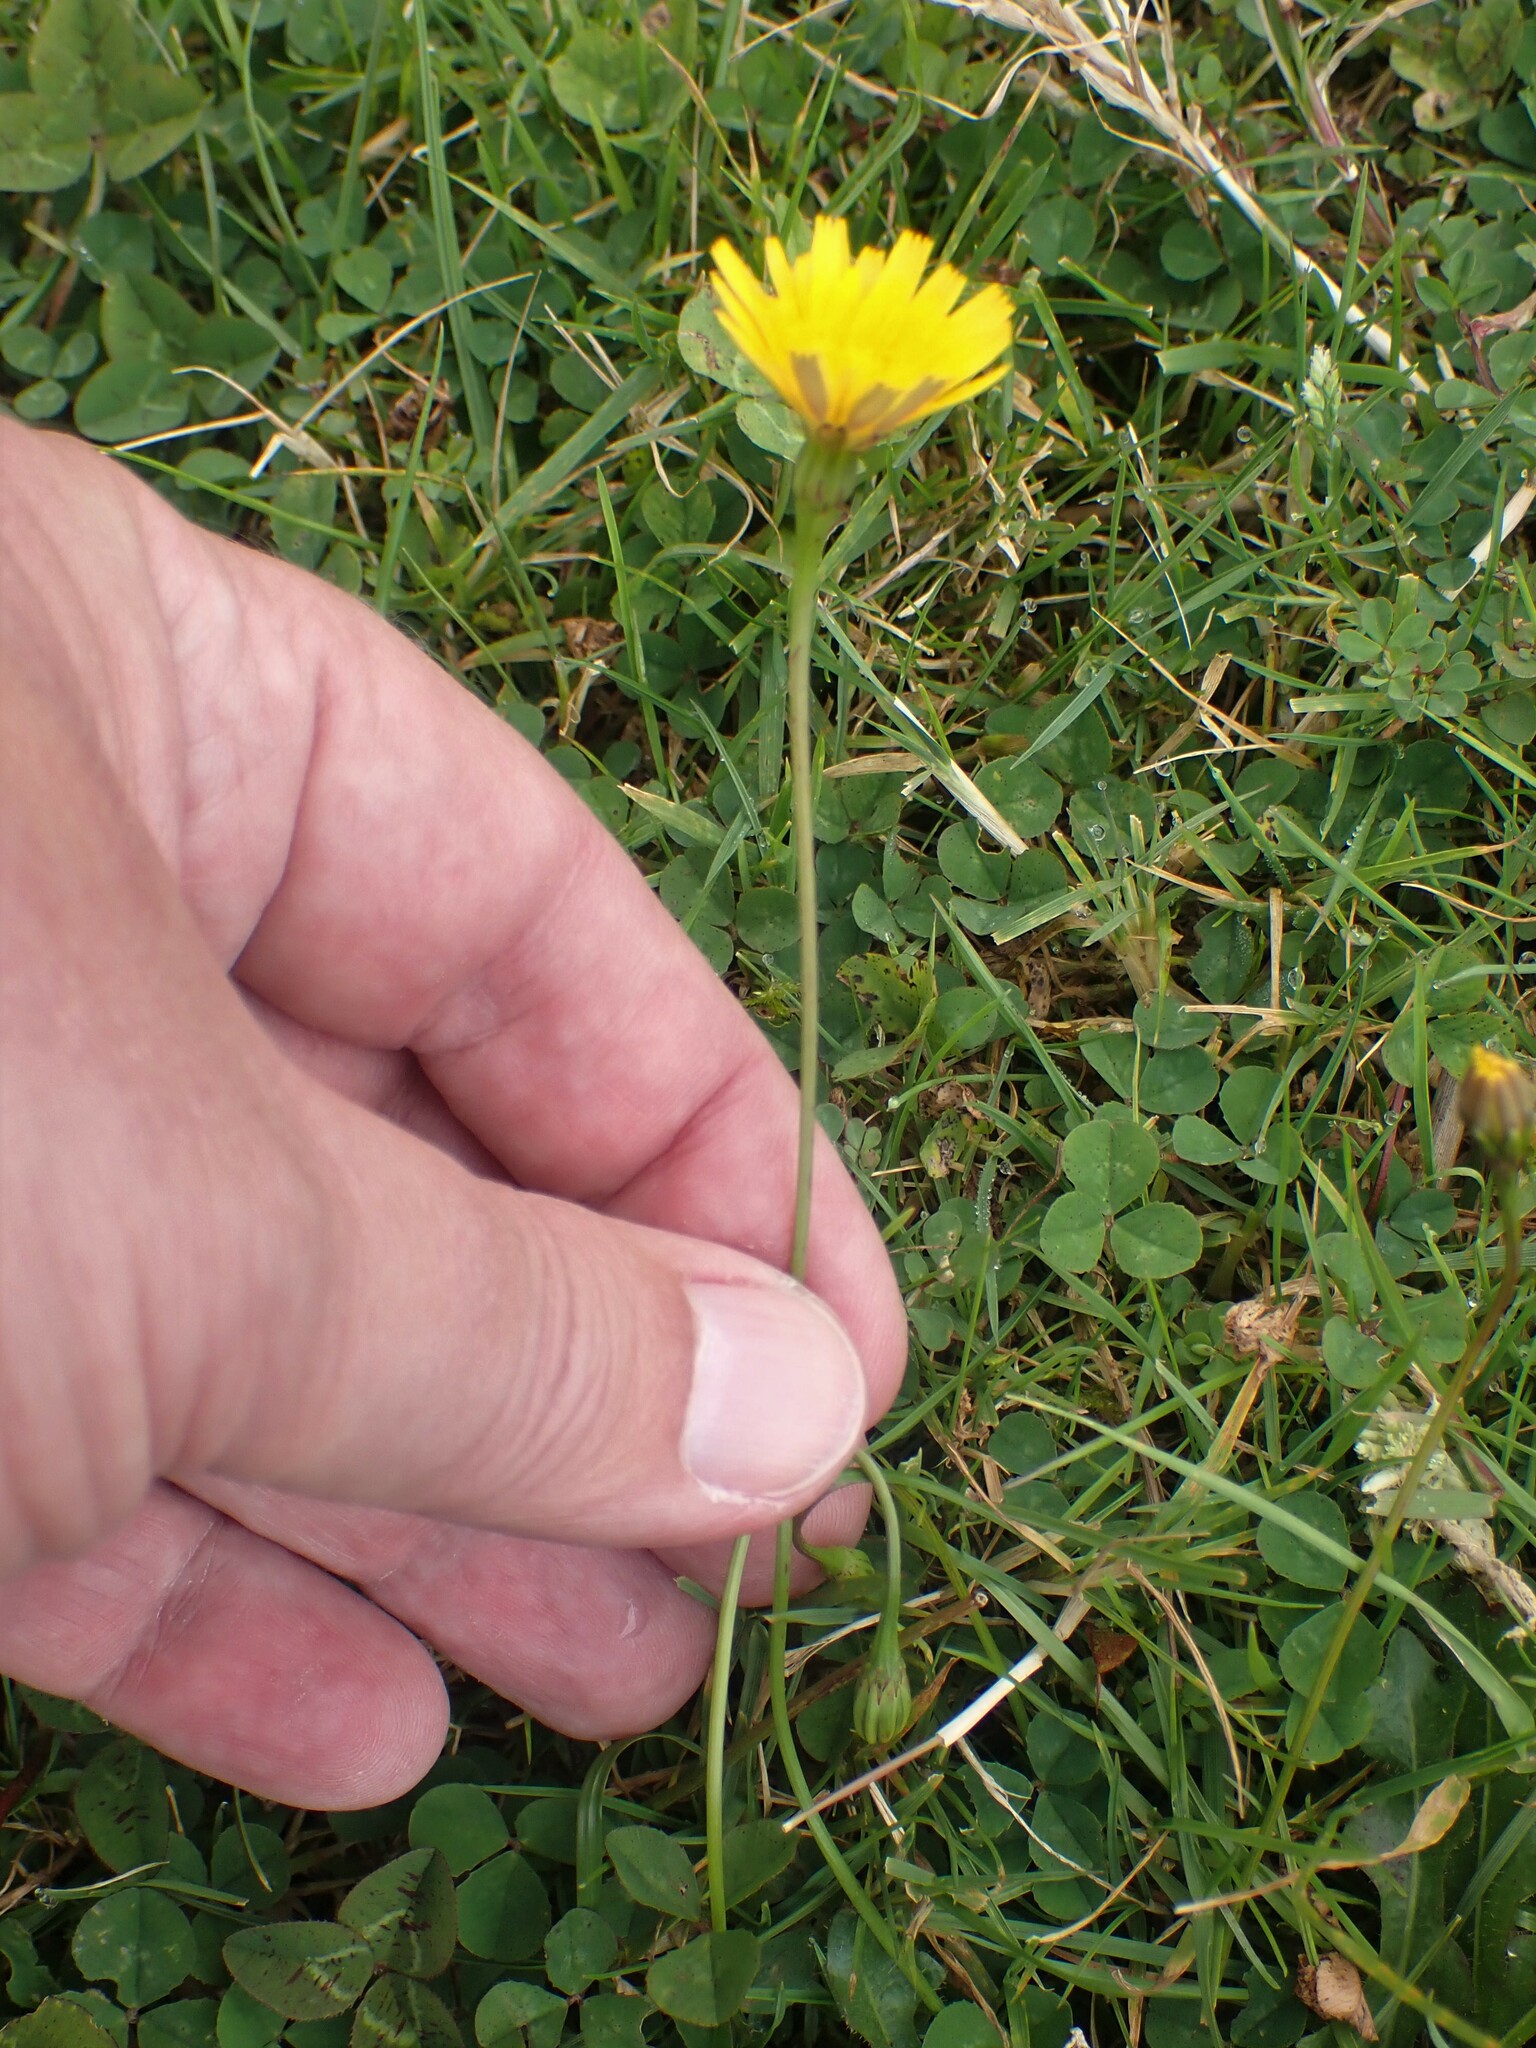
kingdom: Plantae
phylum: Tracheophyta
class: Magnoliopsida
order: Asterales
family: Asteraceae
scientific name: Asteraceae
